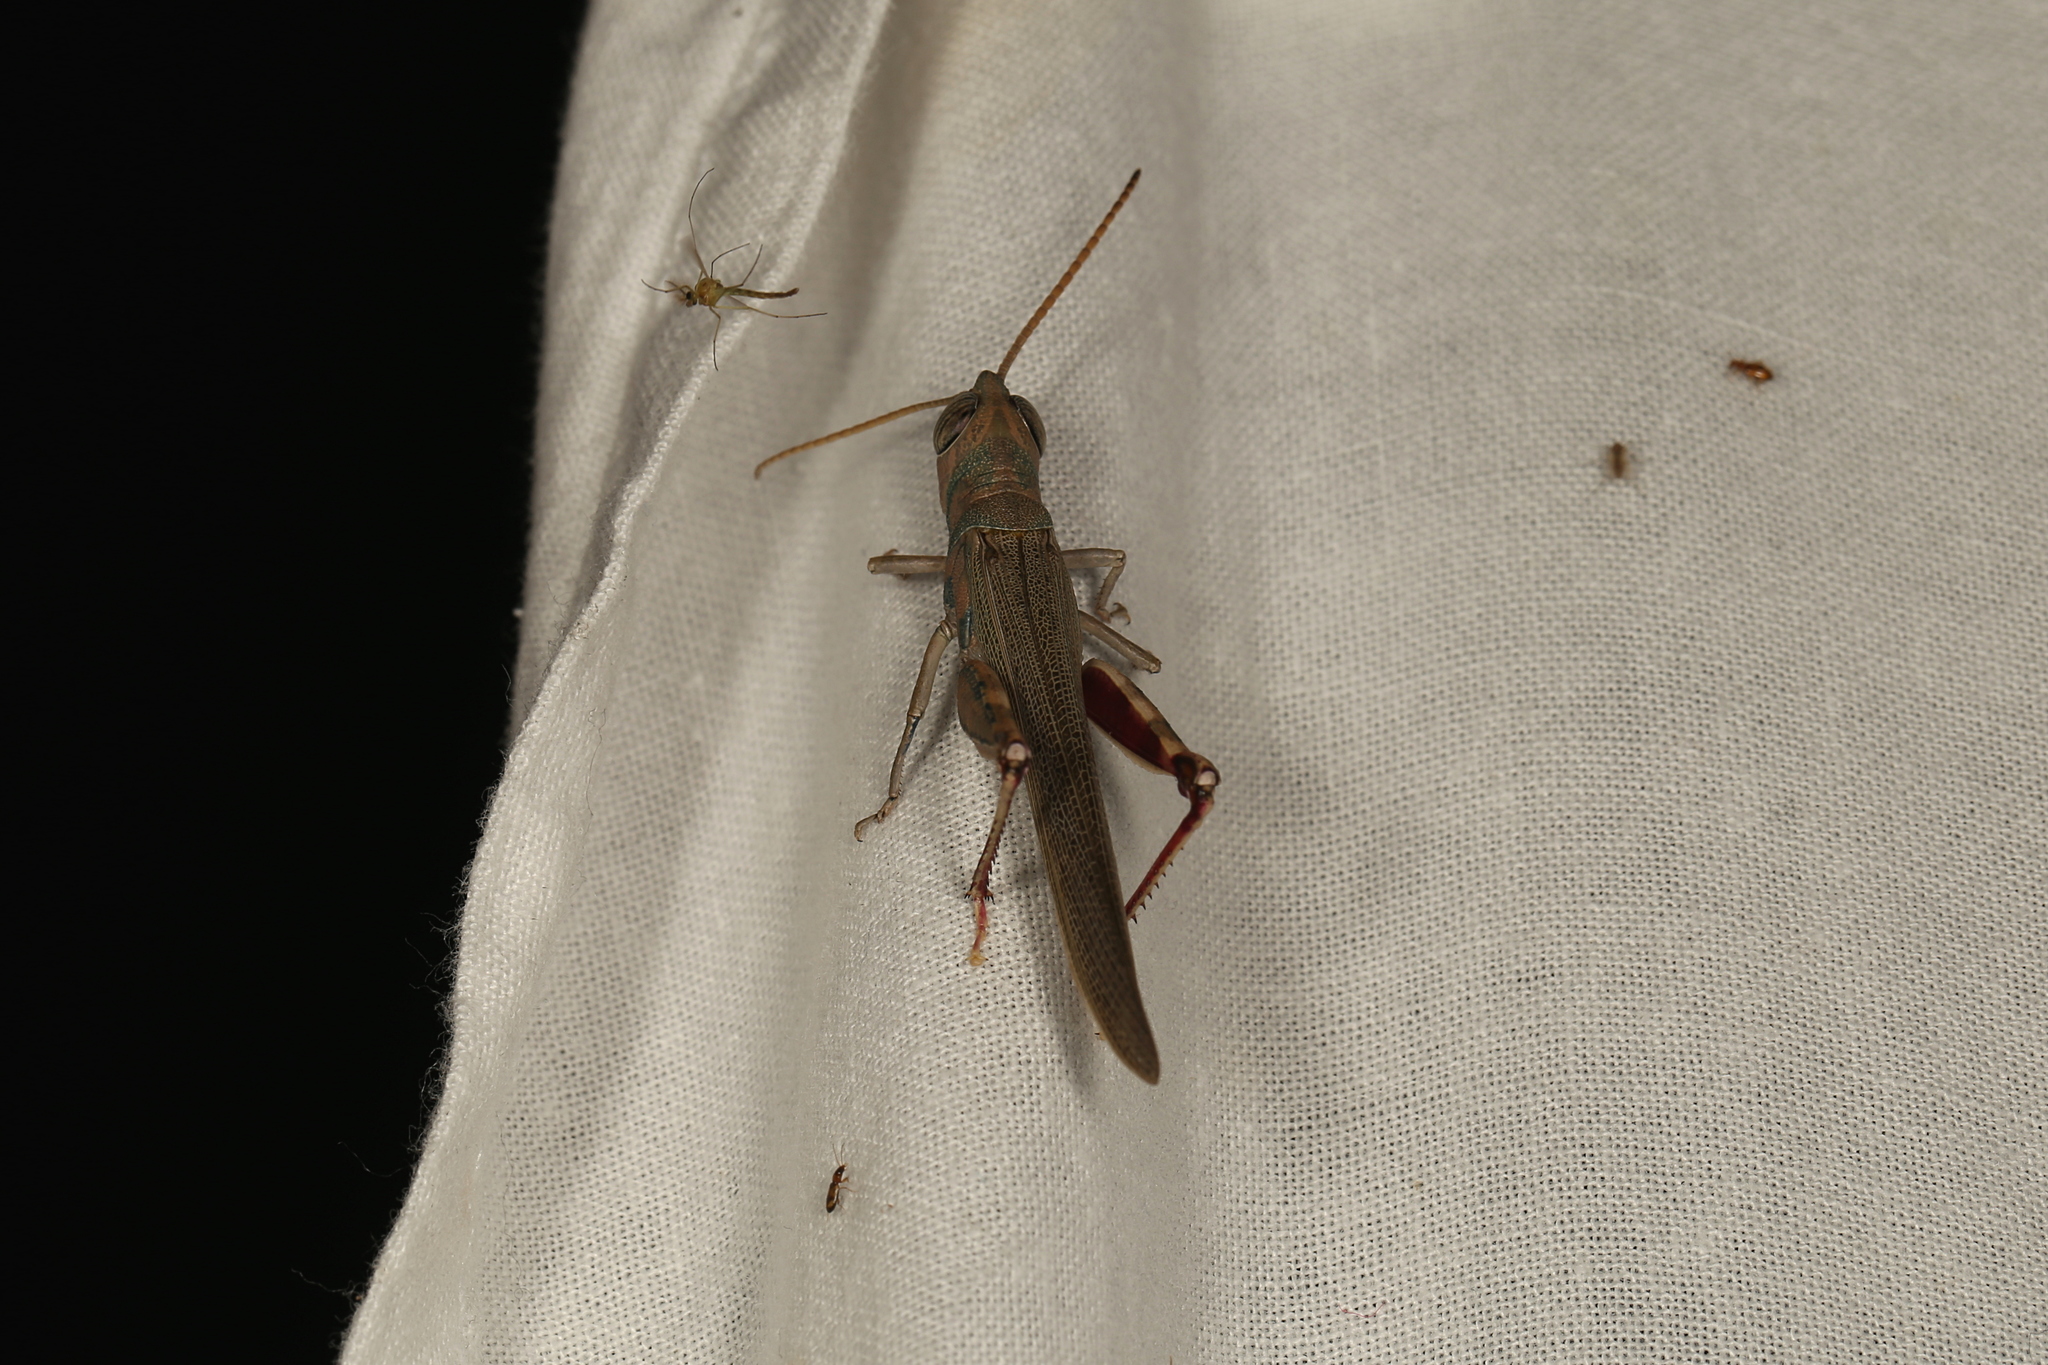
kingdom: Animalia
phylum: Arthropoda
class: Insecta
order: Orthoptera
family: Acrididae
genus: Pardillana
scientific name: Pardillana limbata
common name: Common pardillana
